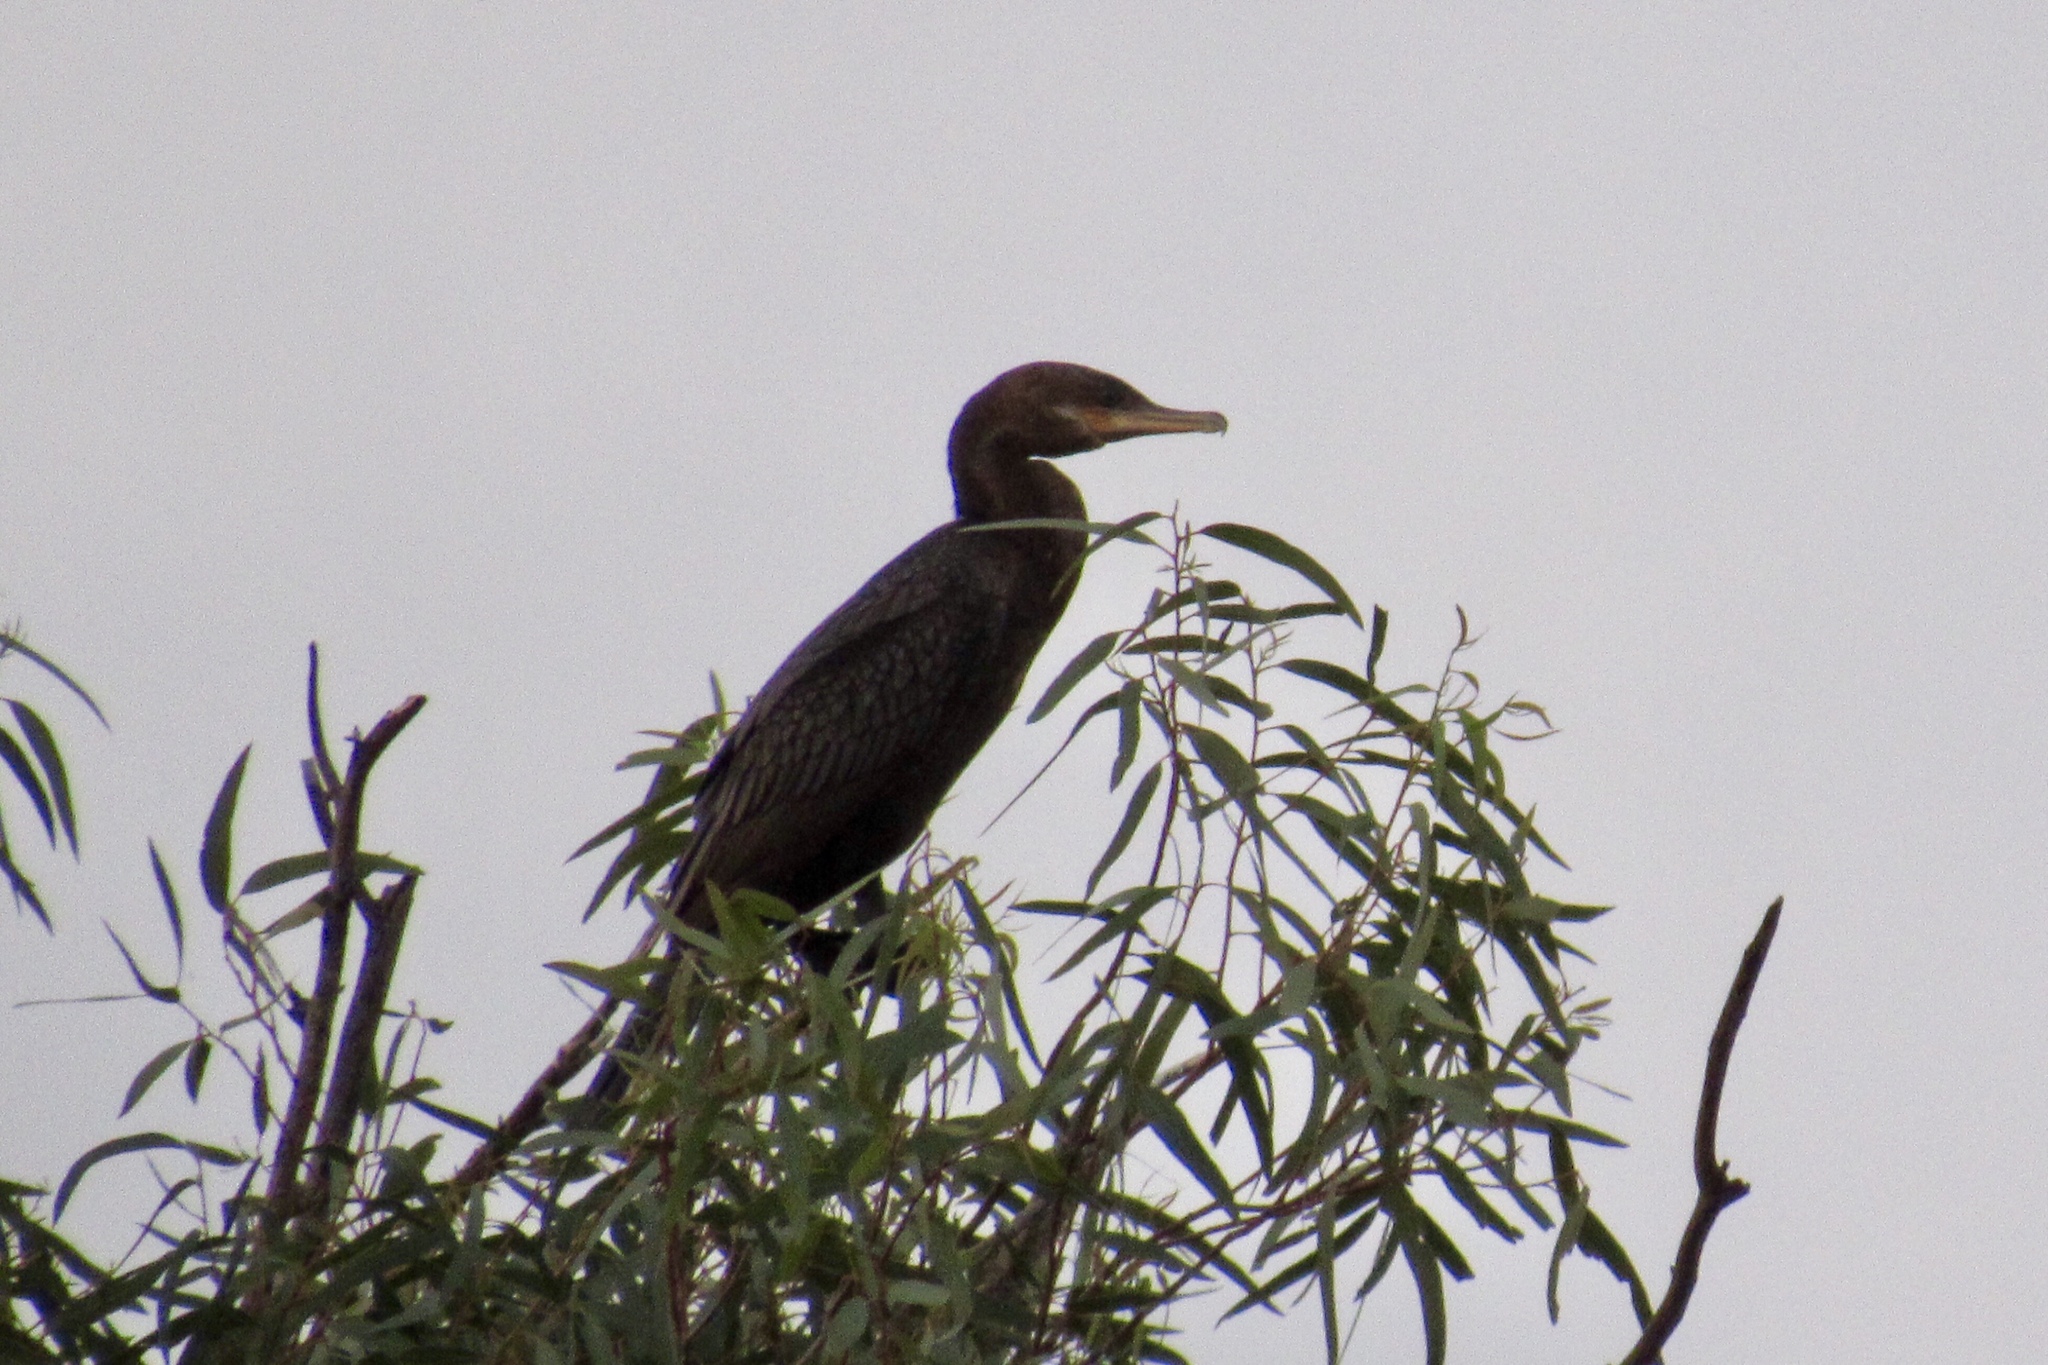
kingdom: Animalia
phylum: Chordata
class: Aves
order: Suliformes
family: Phalacrocoracidae
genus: Phalacrocorax
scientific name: Phalacrocorax brasilianus
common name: Neotropic cormorant
